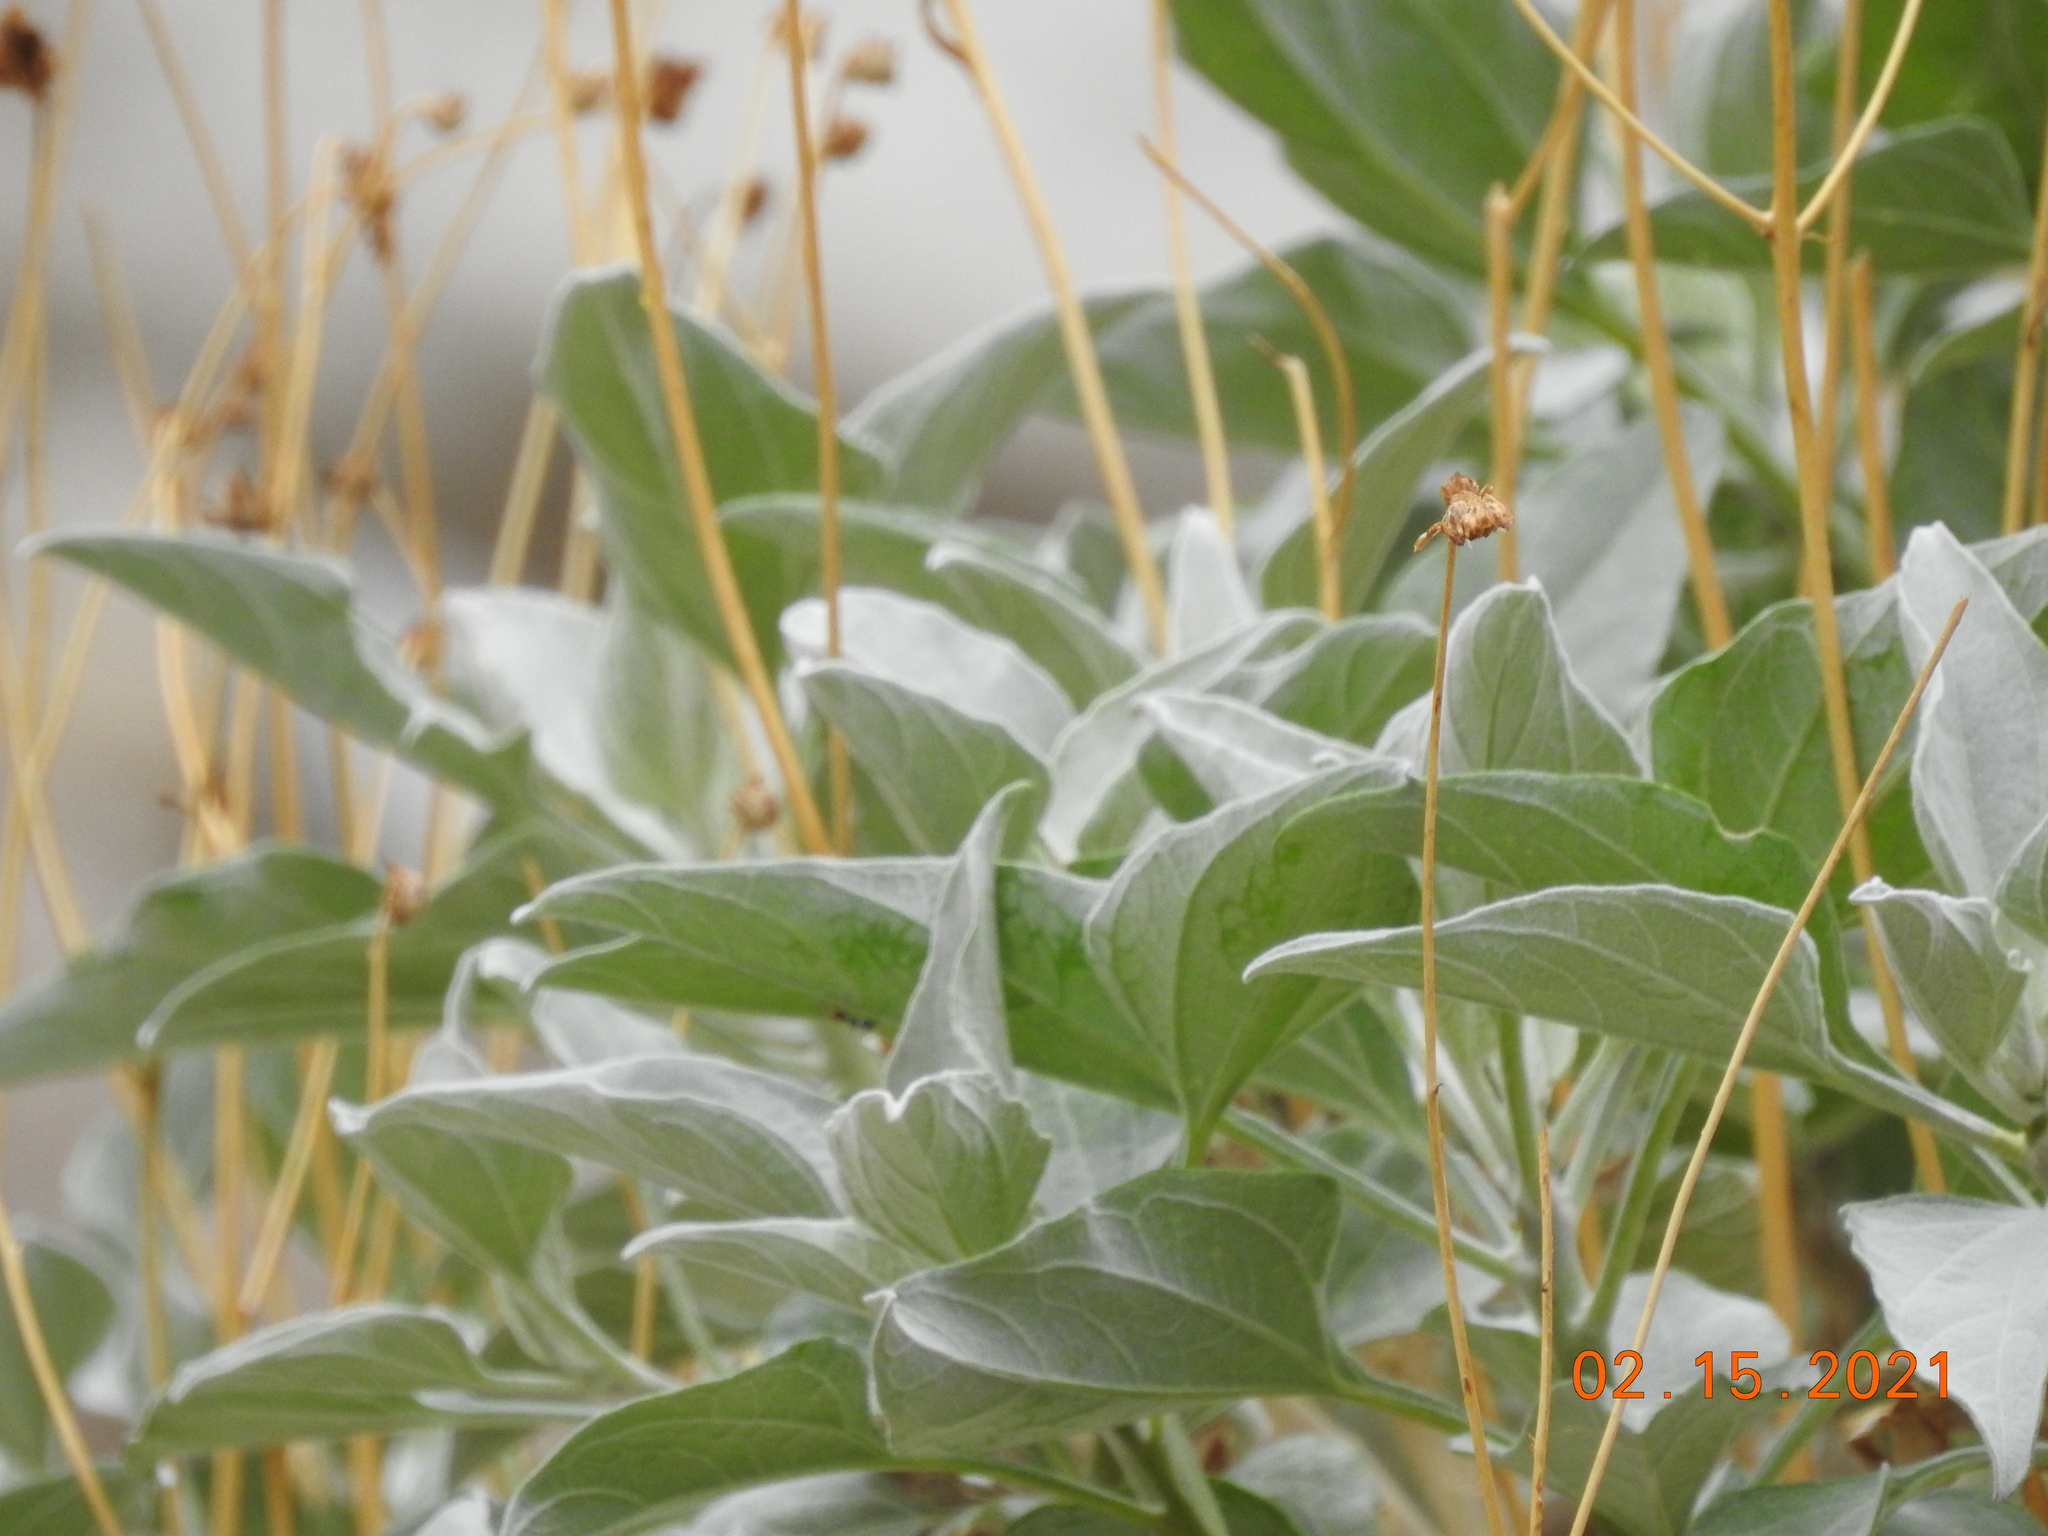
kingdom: Plantae
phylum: Tracheophyta
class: Magnoliopsida
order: Asterales
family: Asteraceae
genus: Encelia
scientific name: Encelia farinosa
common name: Brittlebush
